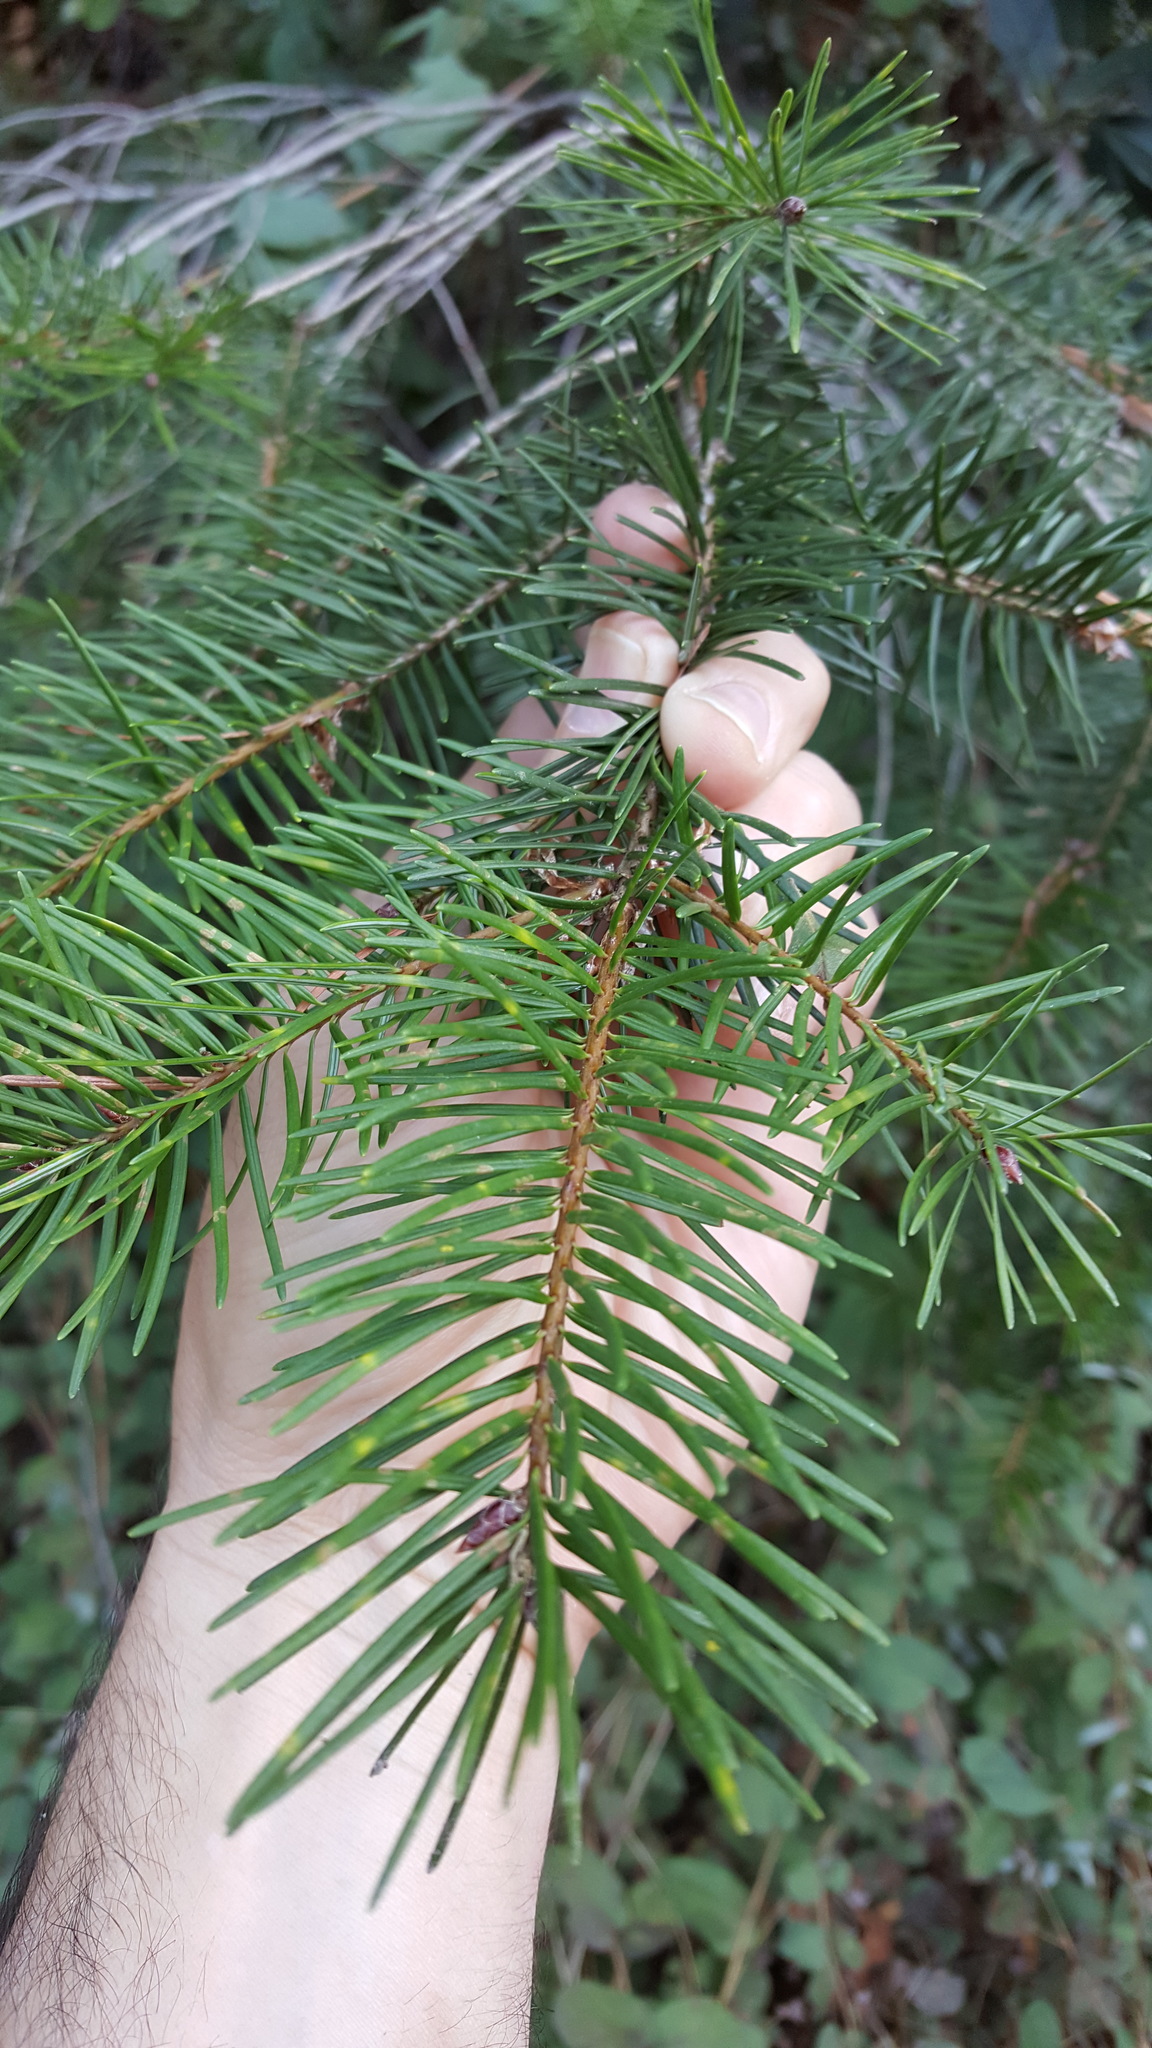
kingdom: Plantae
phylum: Tracheophyta
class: Pinopsida
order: Pinales
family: Pinaceae
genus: Pseudotsuga
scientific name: Pseudotsuga menziesii
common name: Douglas fir
